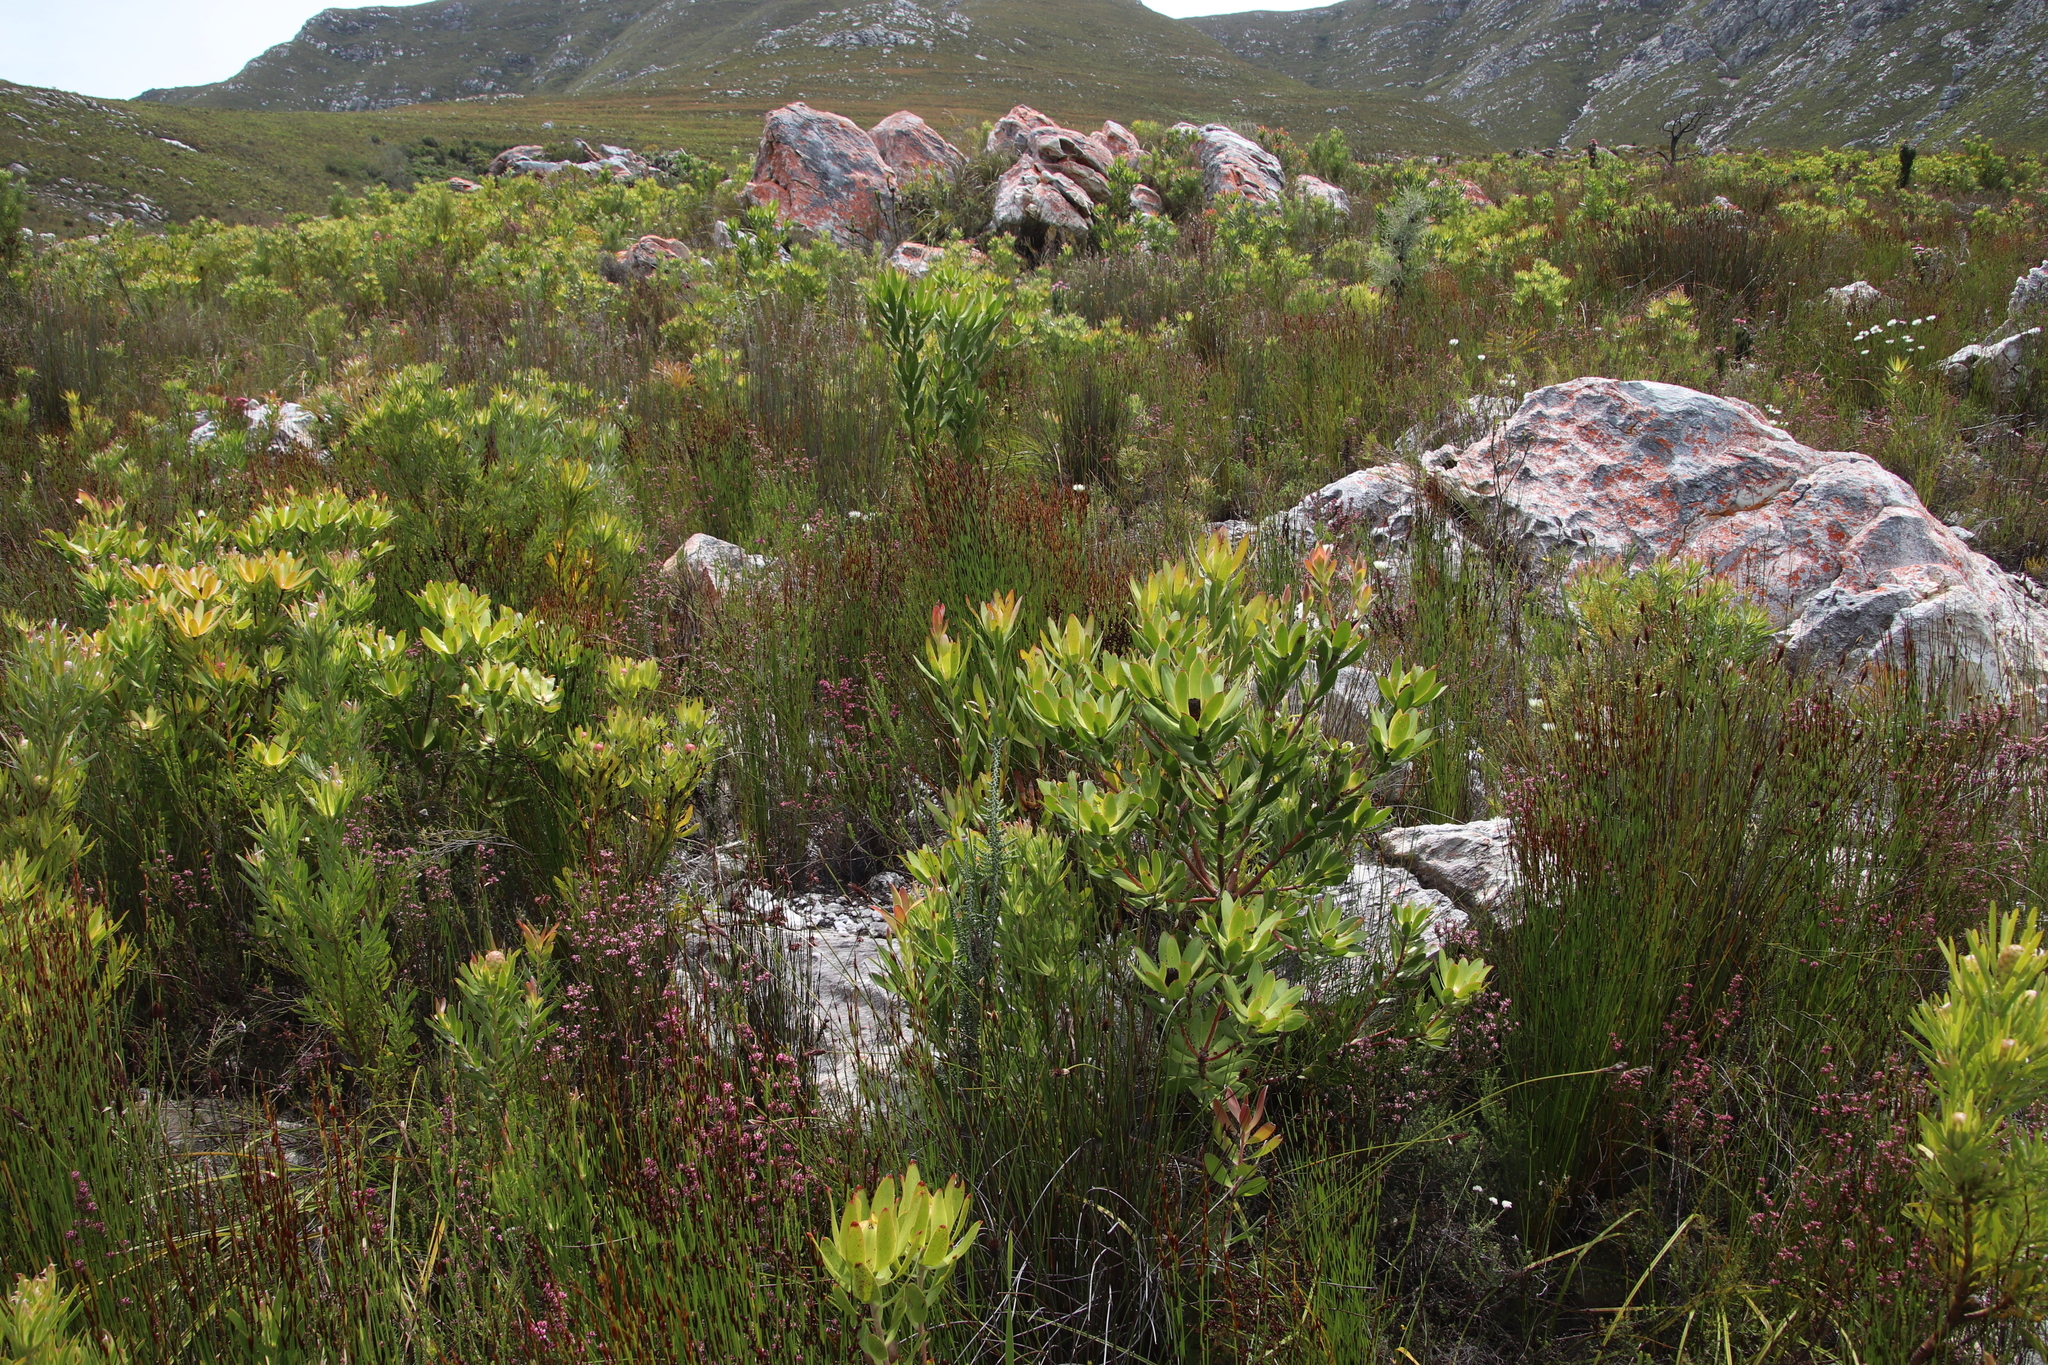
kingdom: Plantae
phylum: Tracheophyta
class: Magnoliopsida
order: Proteales
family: Proteaceae
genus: Leucadendron
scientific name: Leucadendron gandogeri
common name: Broad-leaf conebush
